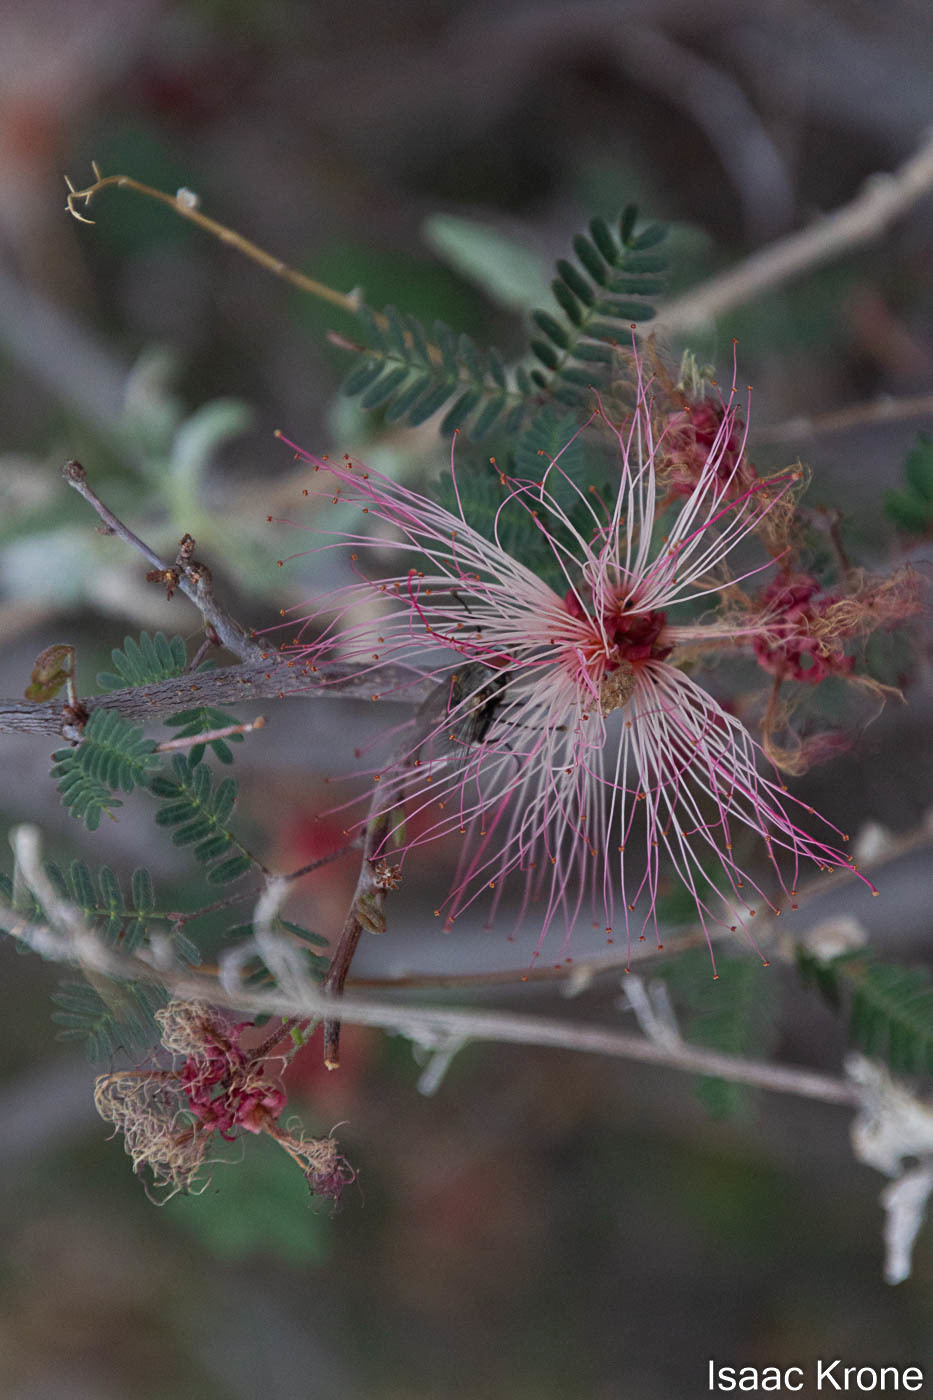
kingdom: Plantae
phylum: Tracheophyta
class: Magnoliopsida
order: Fabales
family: Fabaceae
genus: Calliandra
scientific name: Calliandra eriophylla
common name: Fairy-duster
